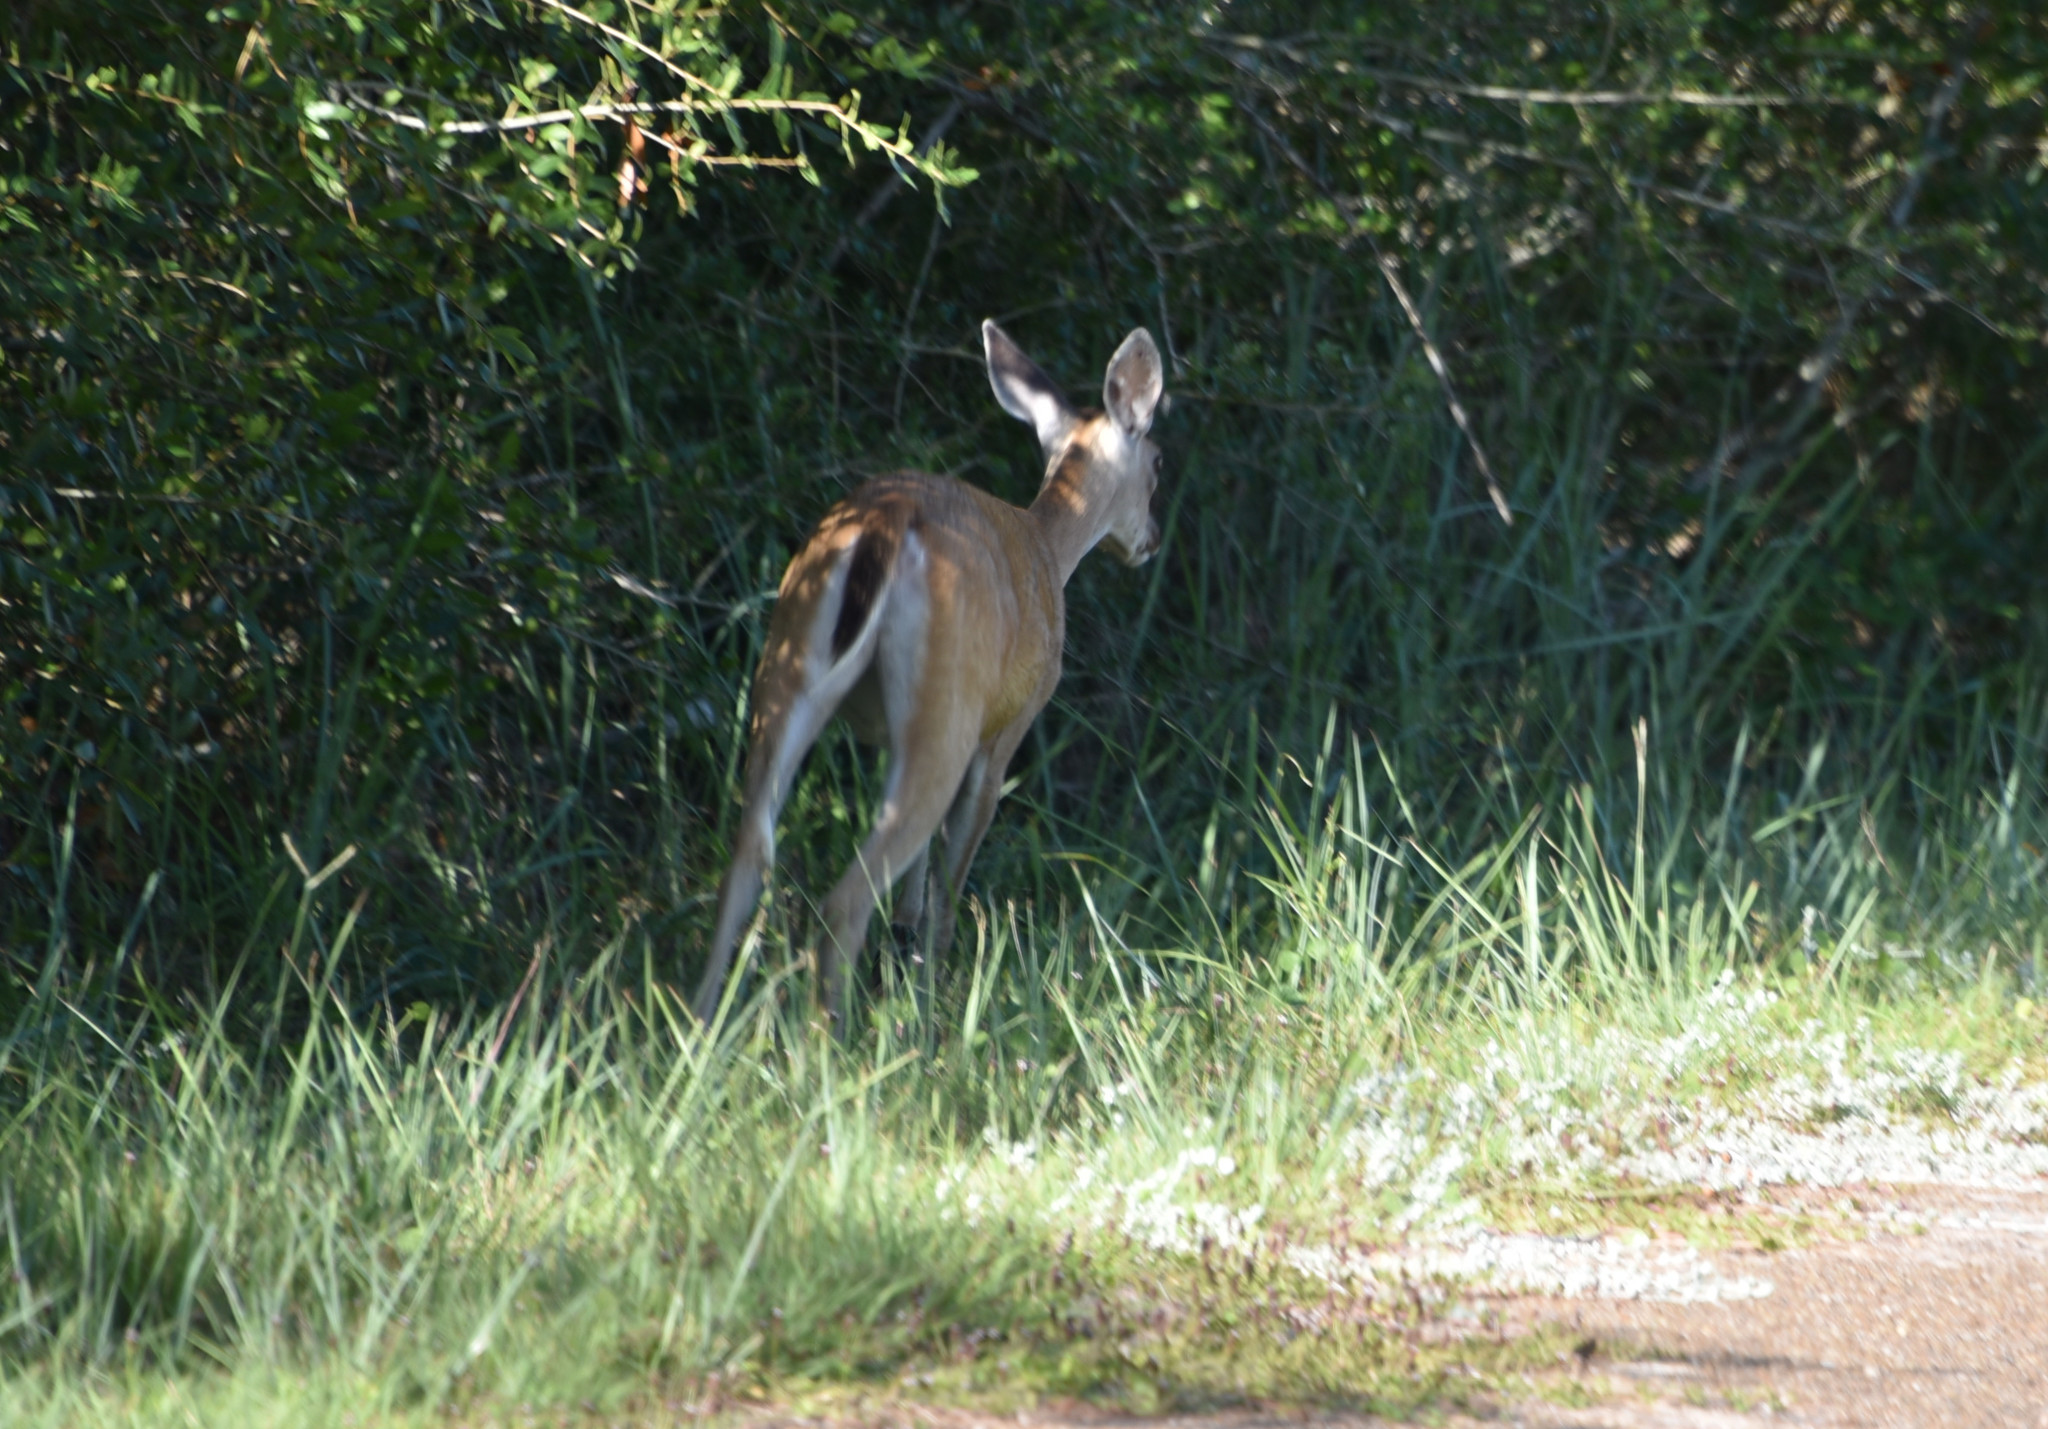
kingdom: Animalia
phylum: Chordata
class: Mammalia
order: Artiodactyla
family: Cervidae
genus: Odocoileus
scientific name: Odocoileus virginianus
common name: White-tailed deer
